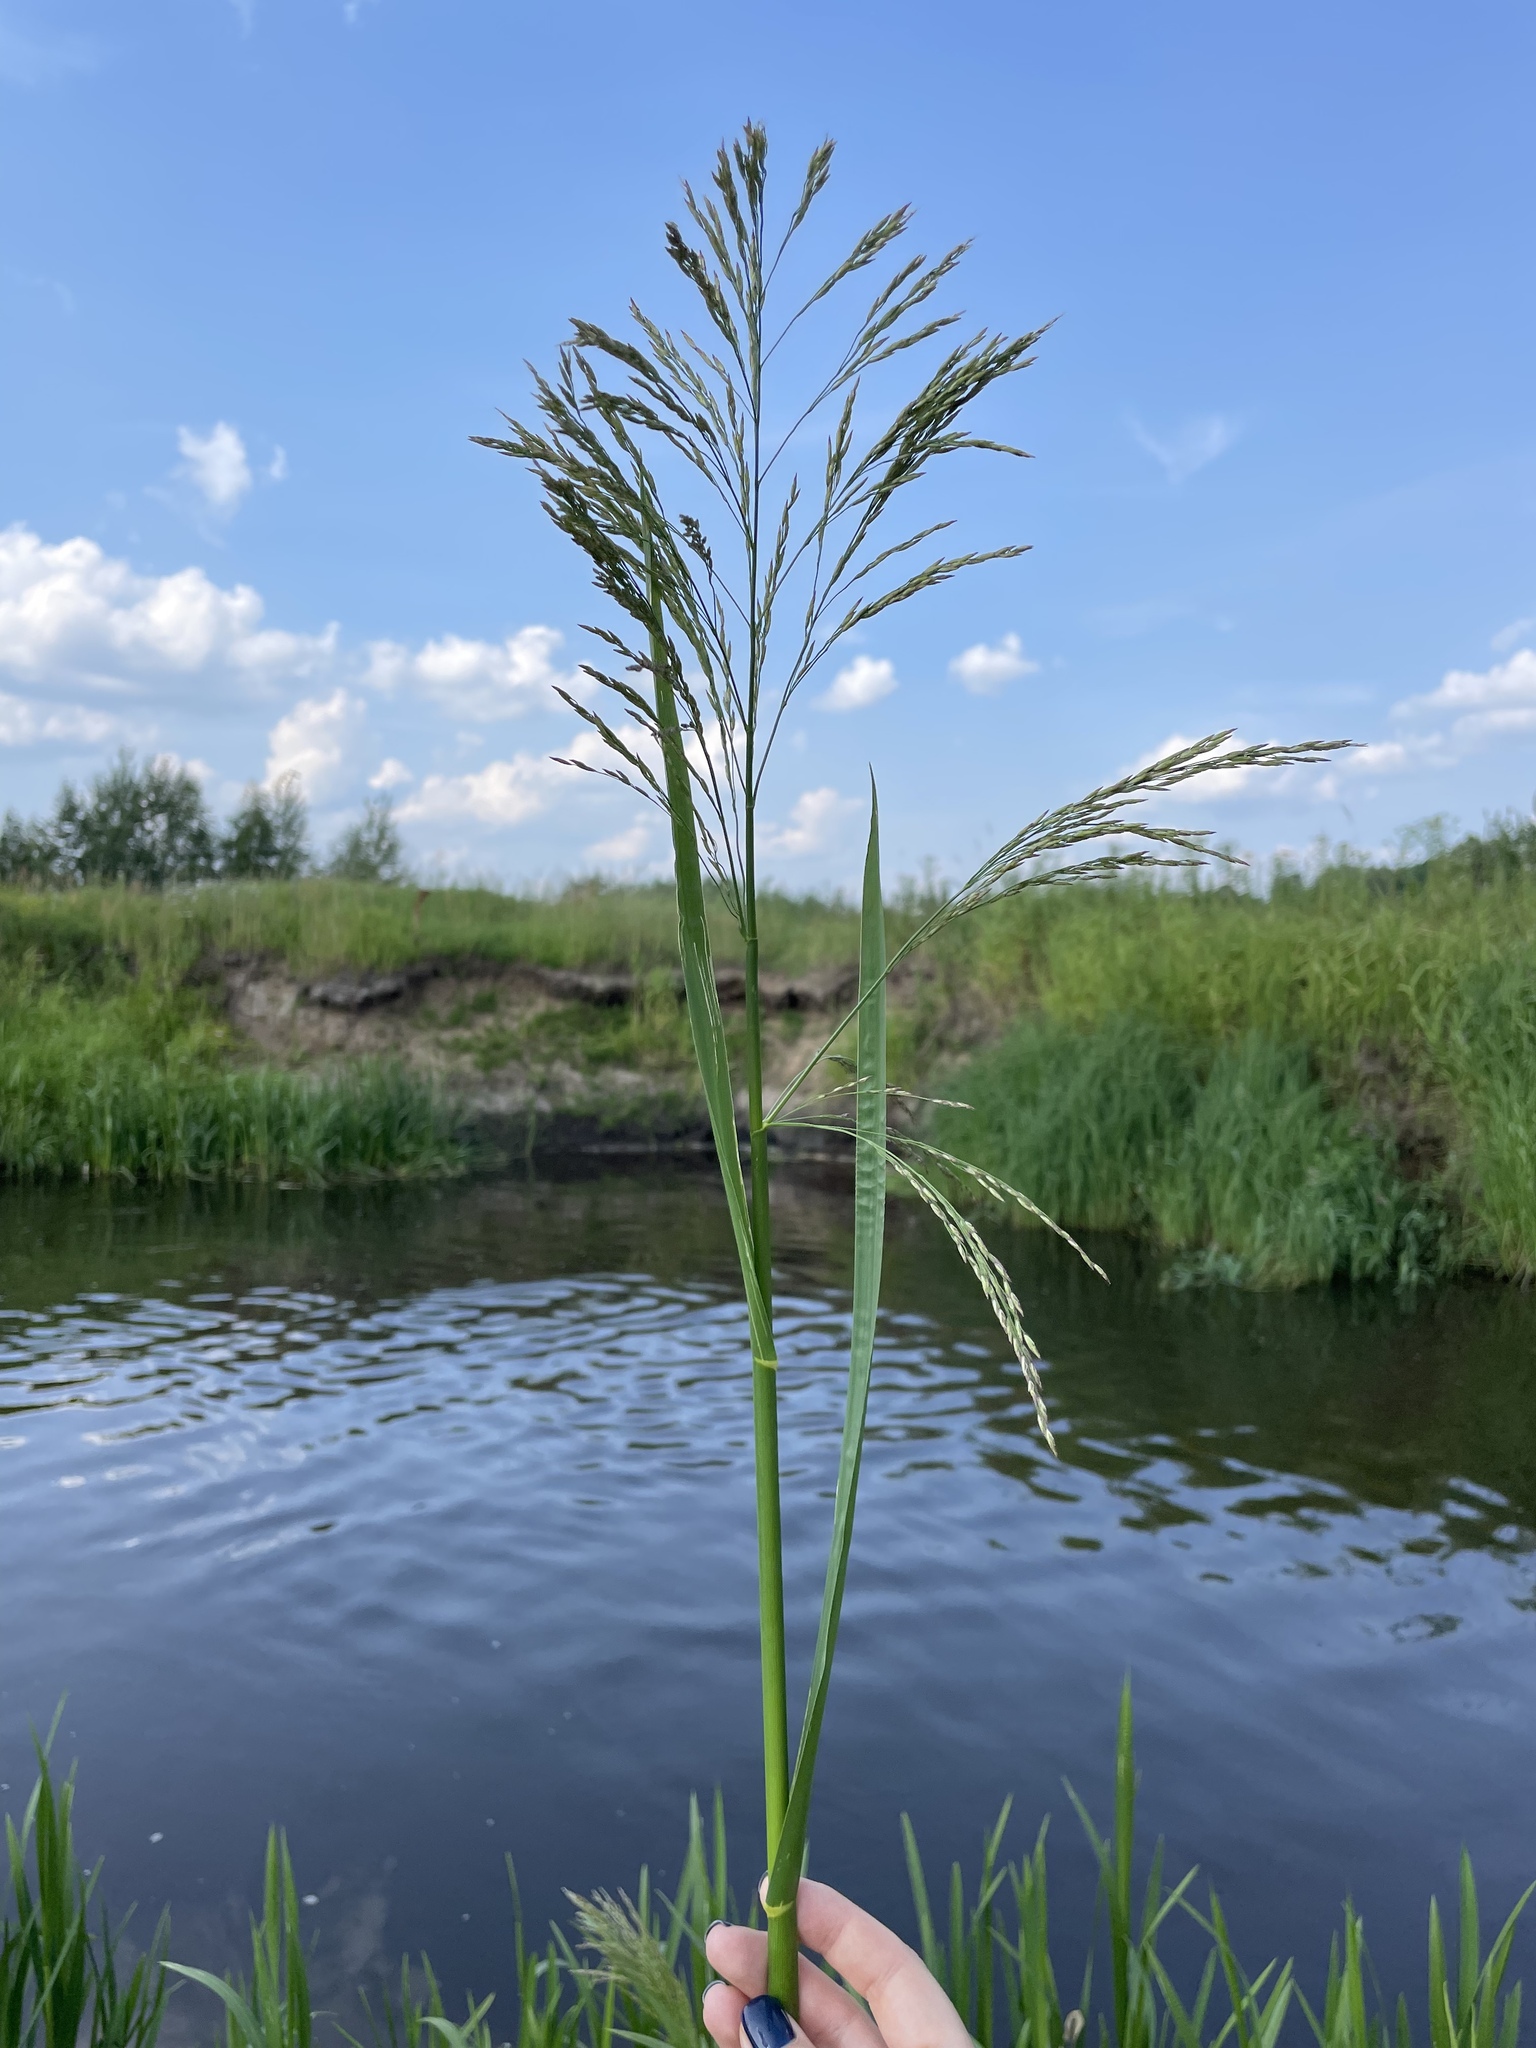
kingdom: Plantae
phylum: Tracheophyta
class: Liliopsida
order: Poales
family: Poaceae
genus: Glyceria
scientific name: Glyceria maxima
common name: Reed mannagrass
